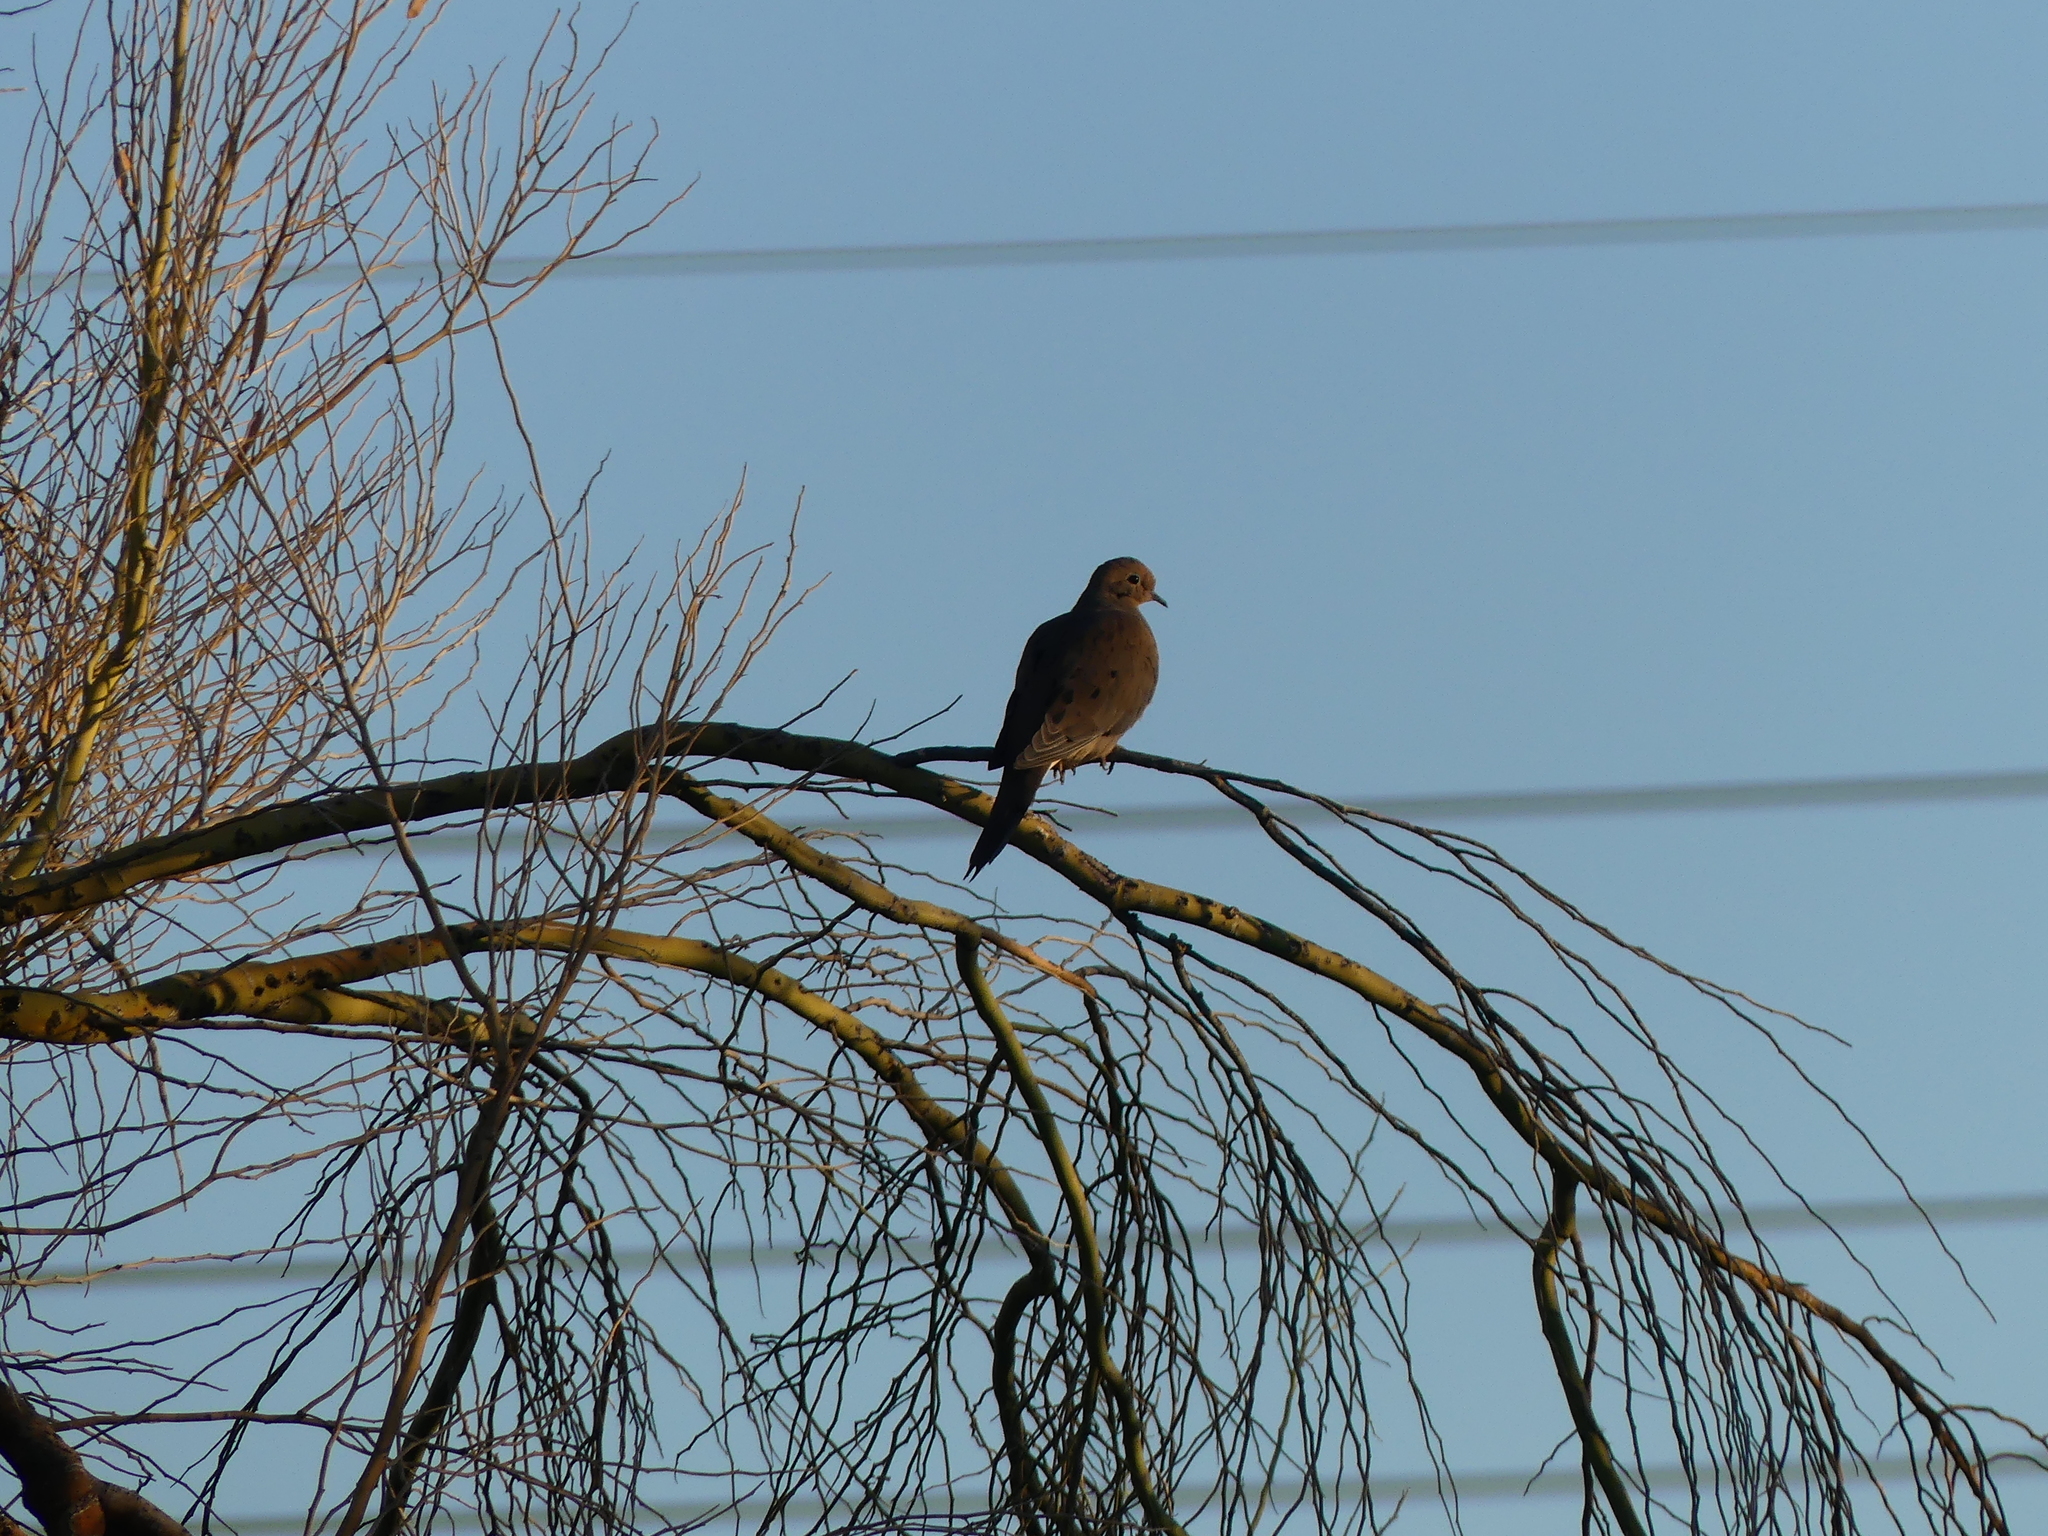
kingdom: Animalia
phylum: Chordata
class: Aves
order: Columbiformes
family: Columbidae
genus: Zenaida
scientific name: Zenaida macroura
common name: Mourning dove
